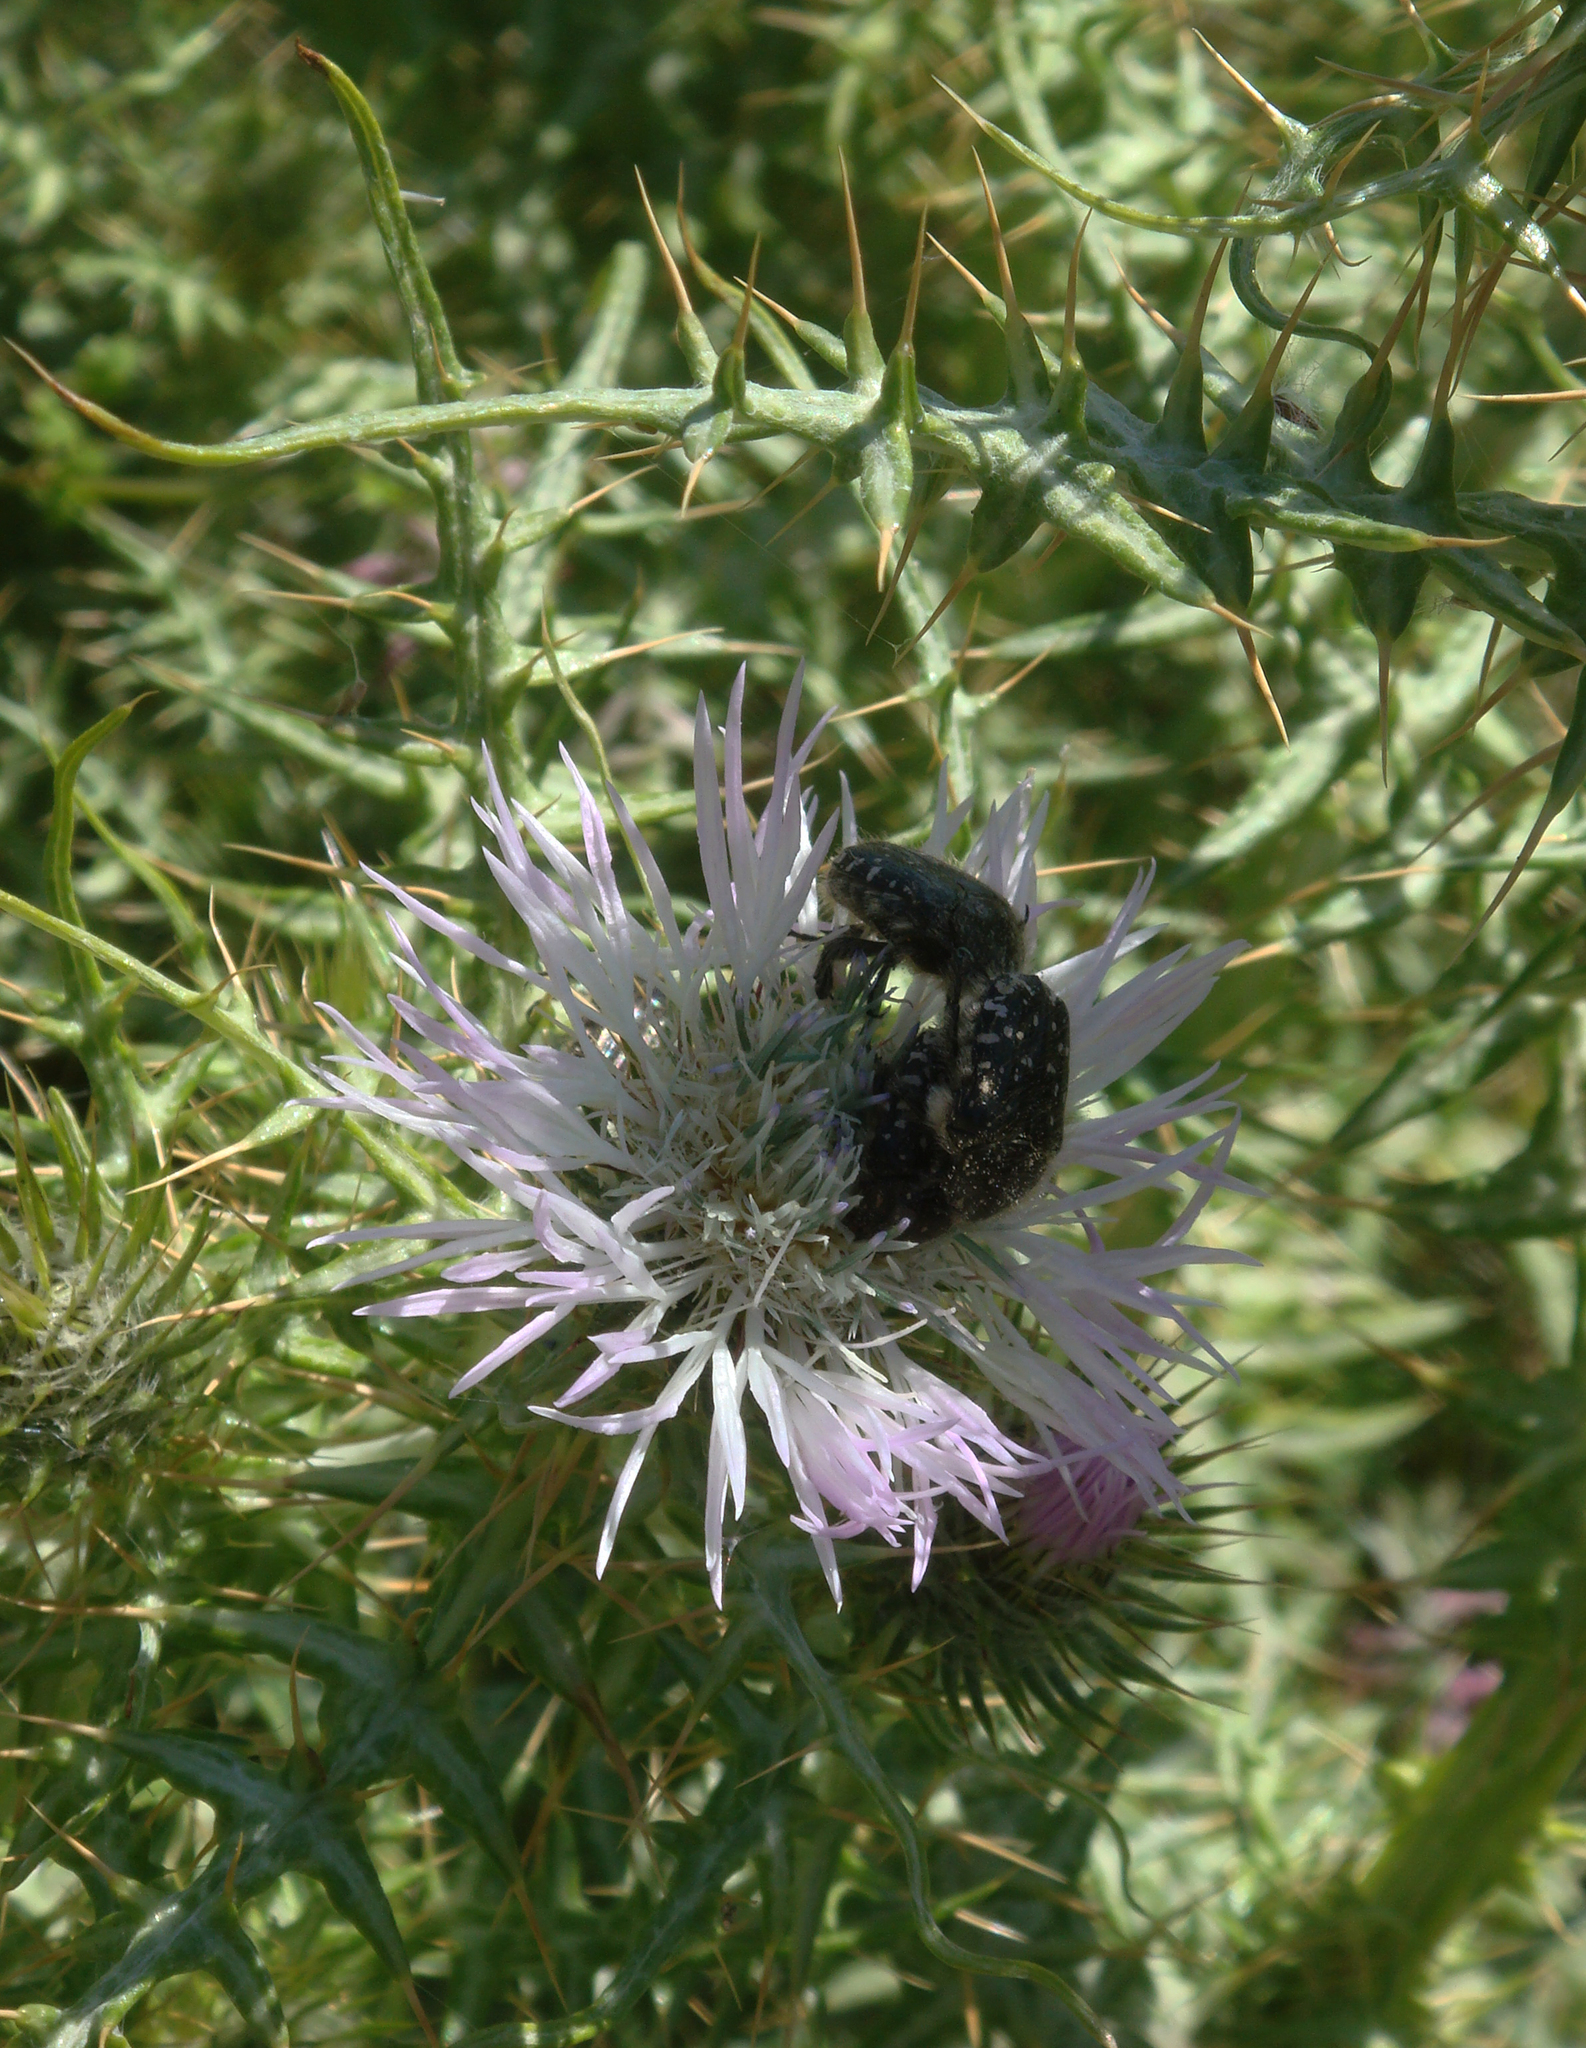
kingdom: Animalia
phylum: Arthropoda
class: Insecta
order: Coleoptera
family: Scarabaeidae
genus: Oxythyrea
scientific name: Oxythyrea funesta
